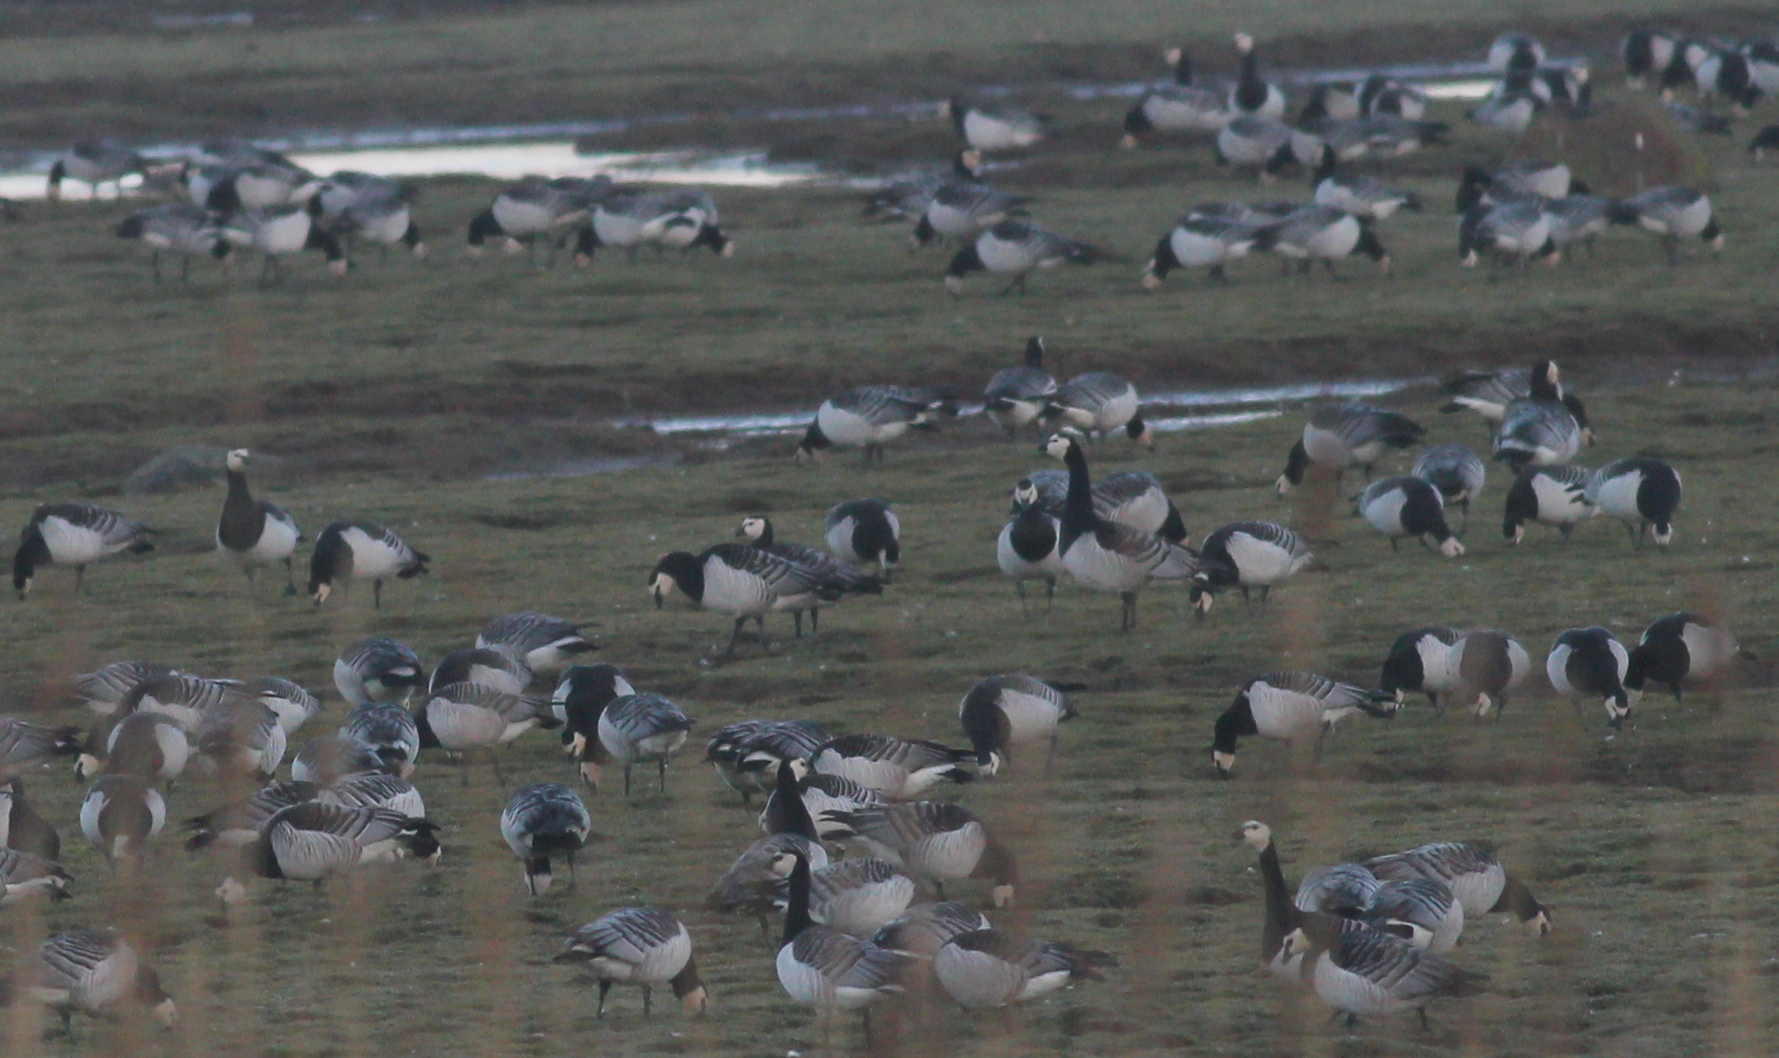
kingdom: Animalia
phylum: Chordata
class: Aves
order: Anseriformes
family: Anatidae
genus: Branta
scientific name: Branta leucopsis
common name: Barnacle goose
